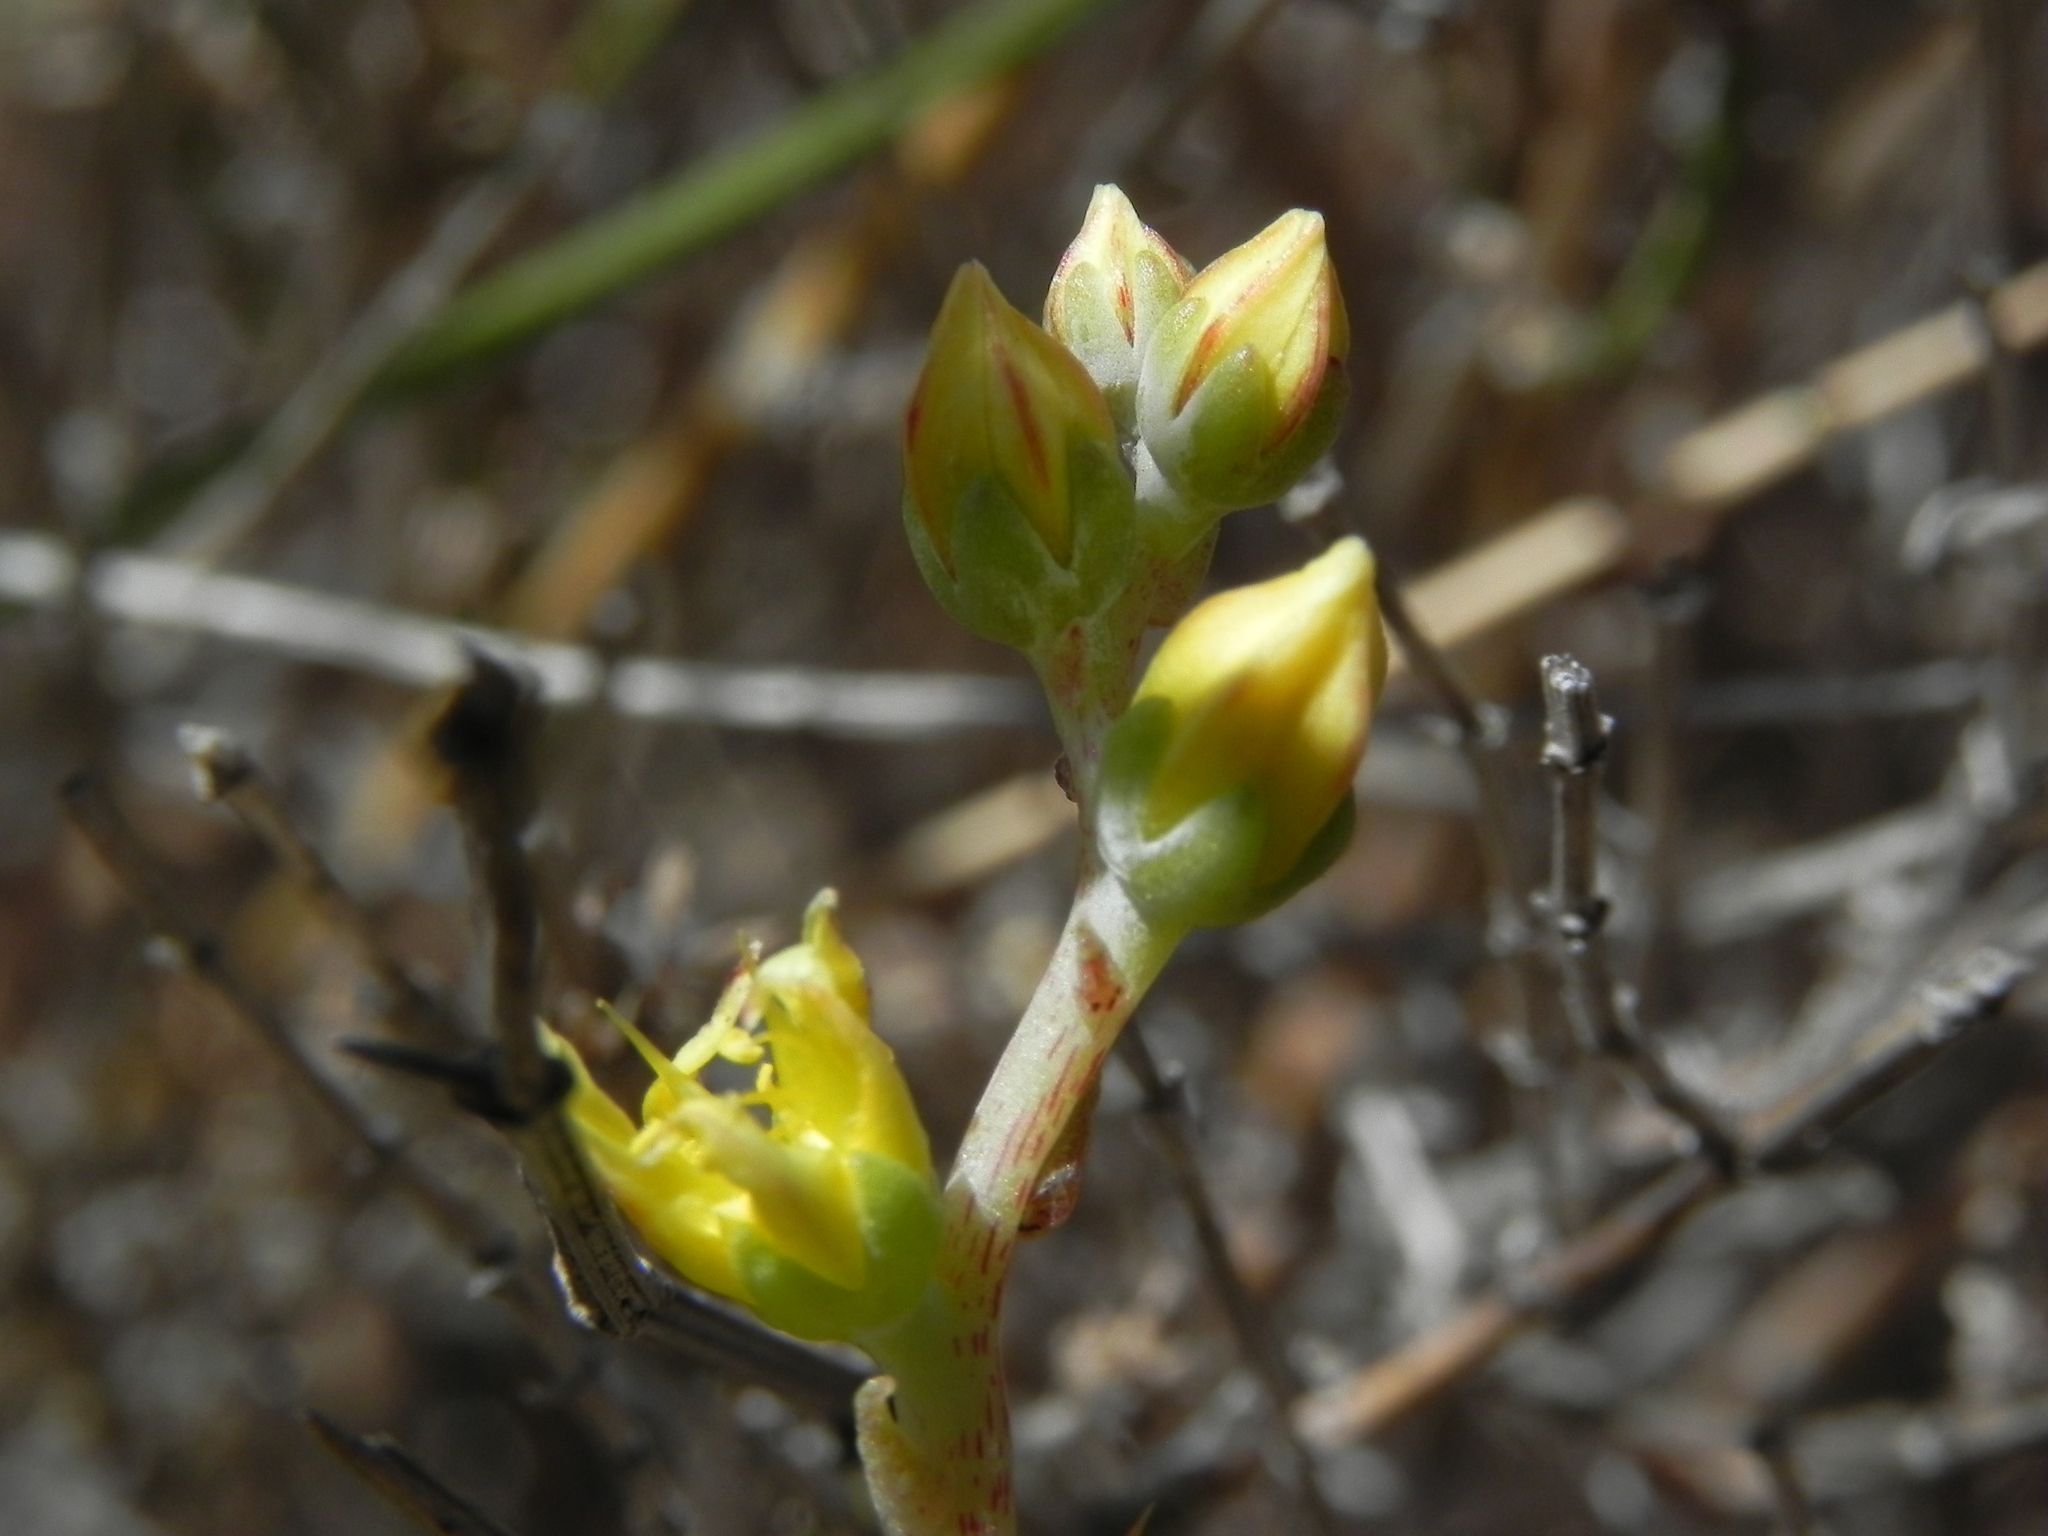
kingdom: Plantae
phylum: Tracheophyta
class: Magnoliopsida
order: Saxifragales
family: Crassulaceae
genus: Dudleya
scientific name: Dudleya variegata
